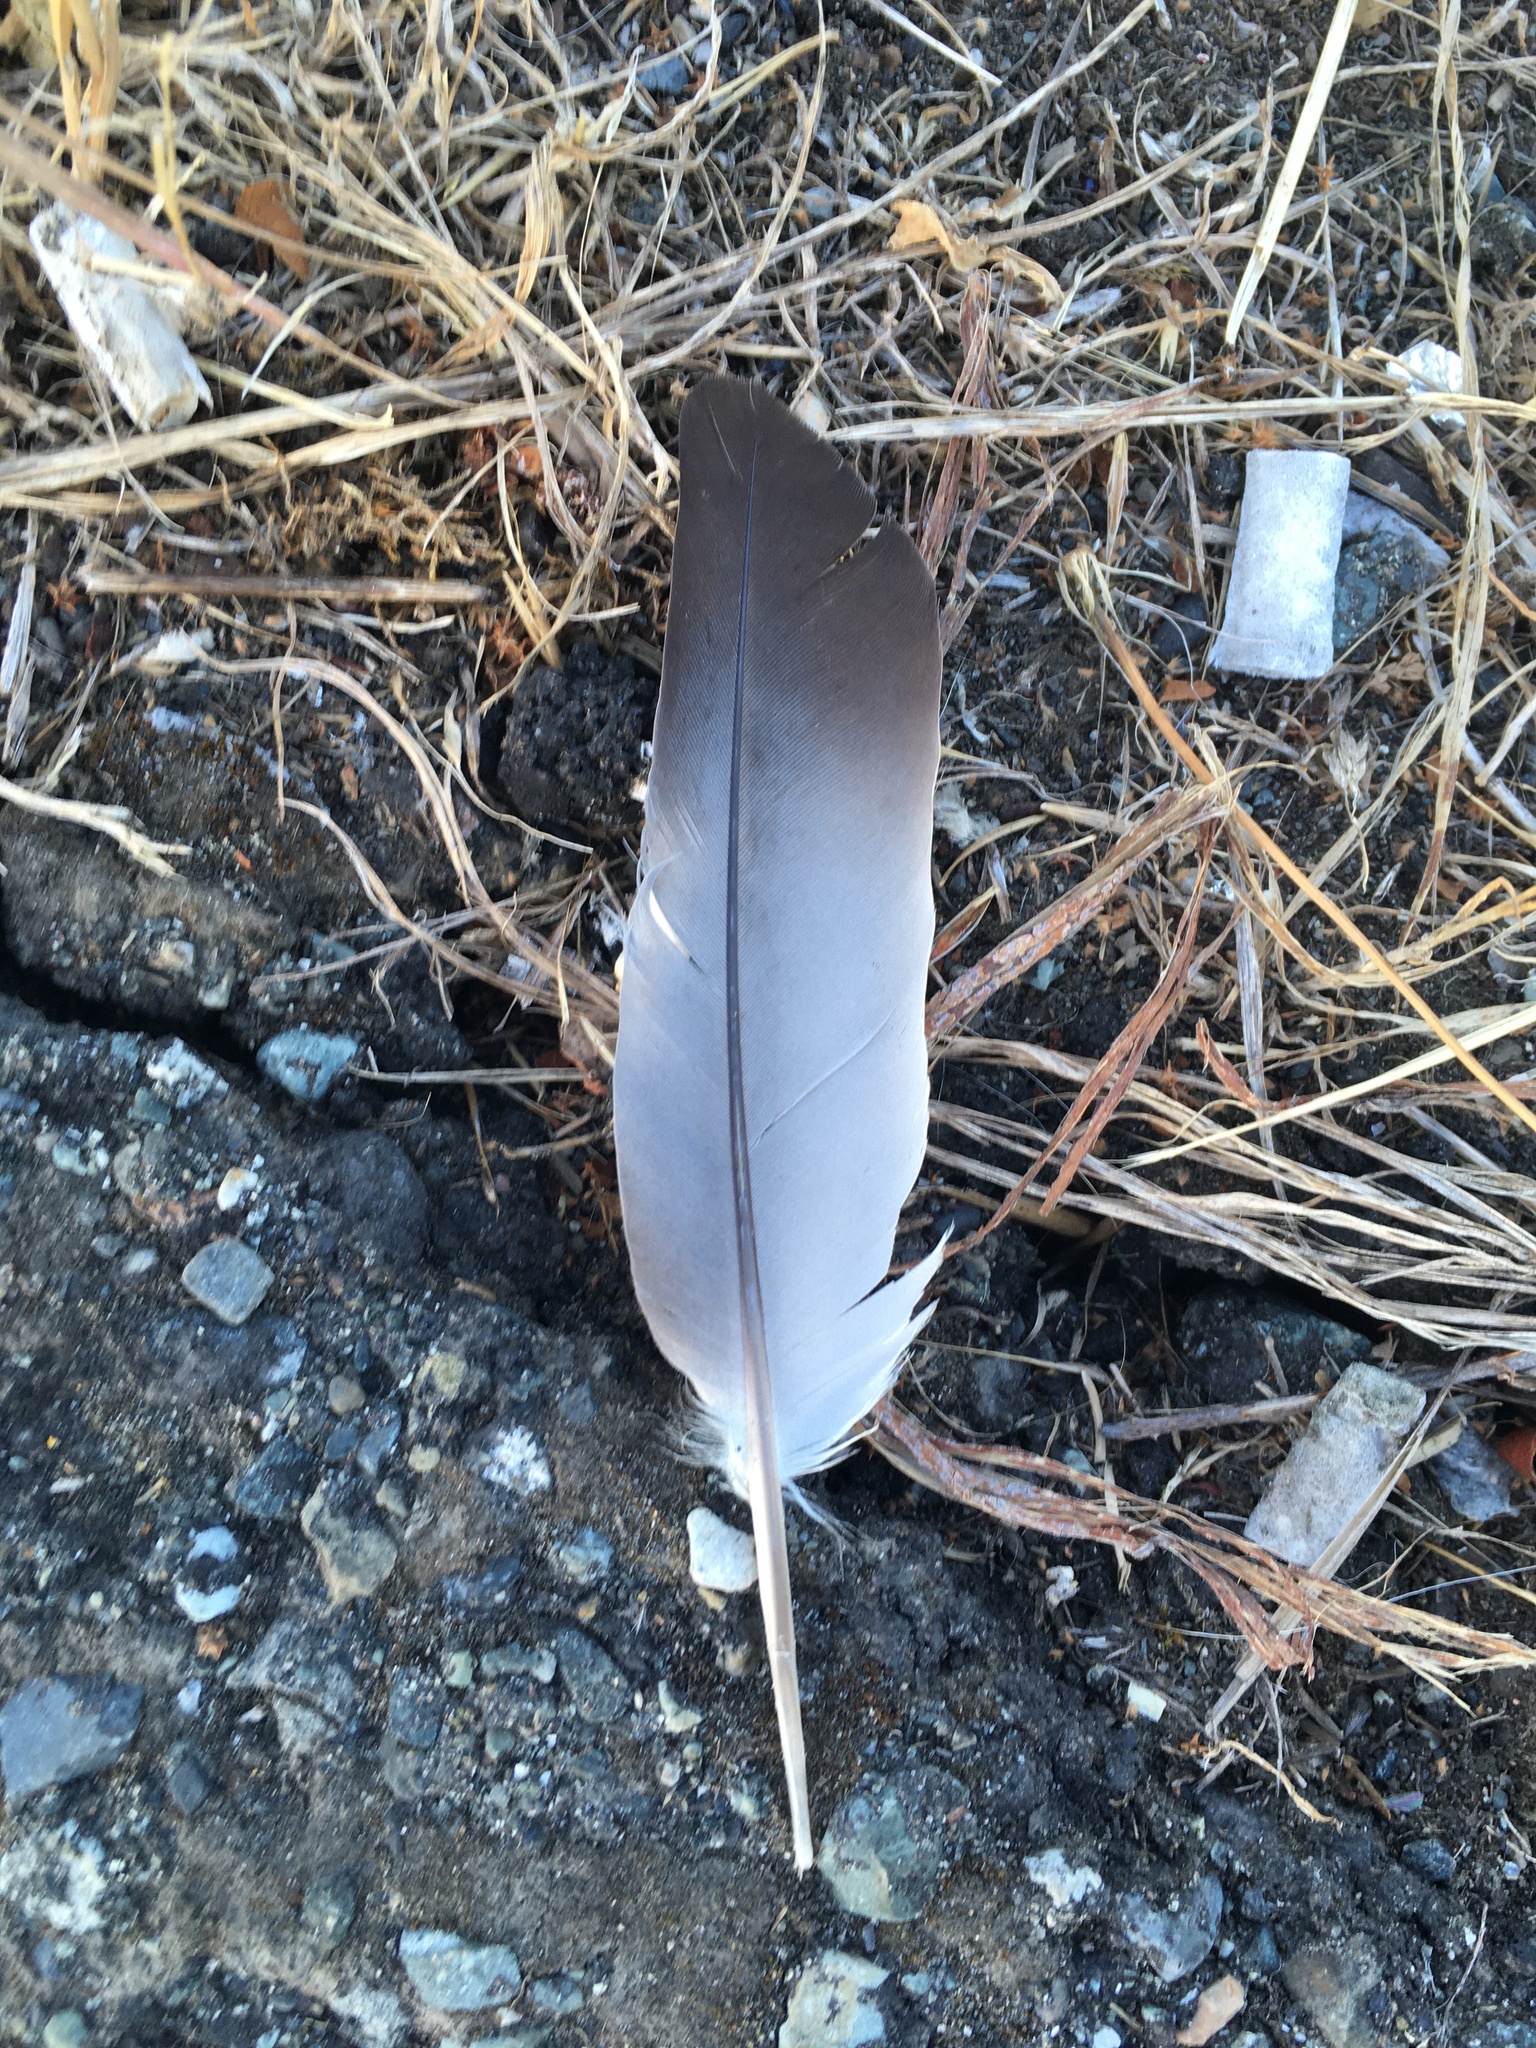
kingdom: Animalia
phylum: Chordata
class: Aves
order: Columbiformes
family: Columbidae
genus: Columba
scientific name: Columba livia
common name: Rock pigeon
